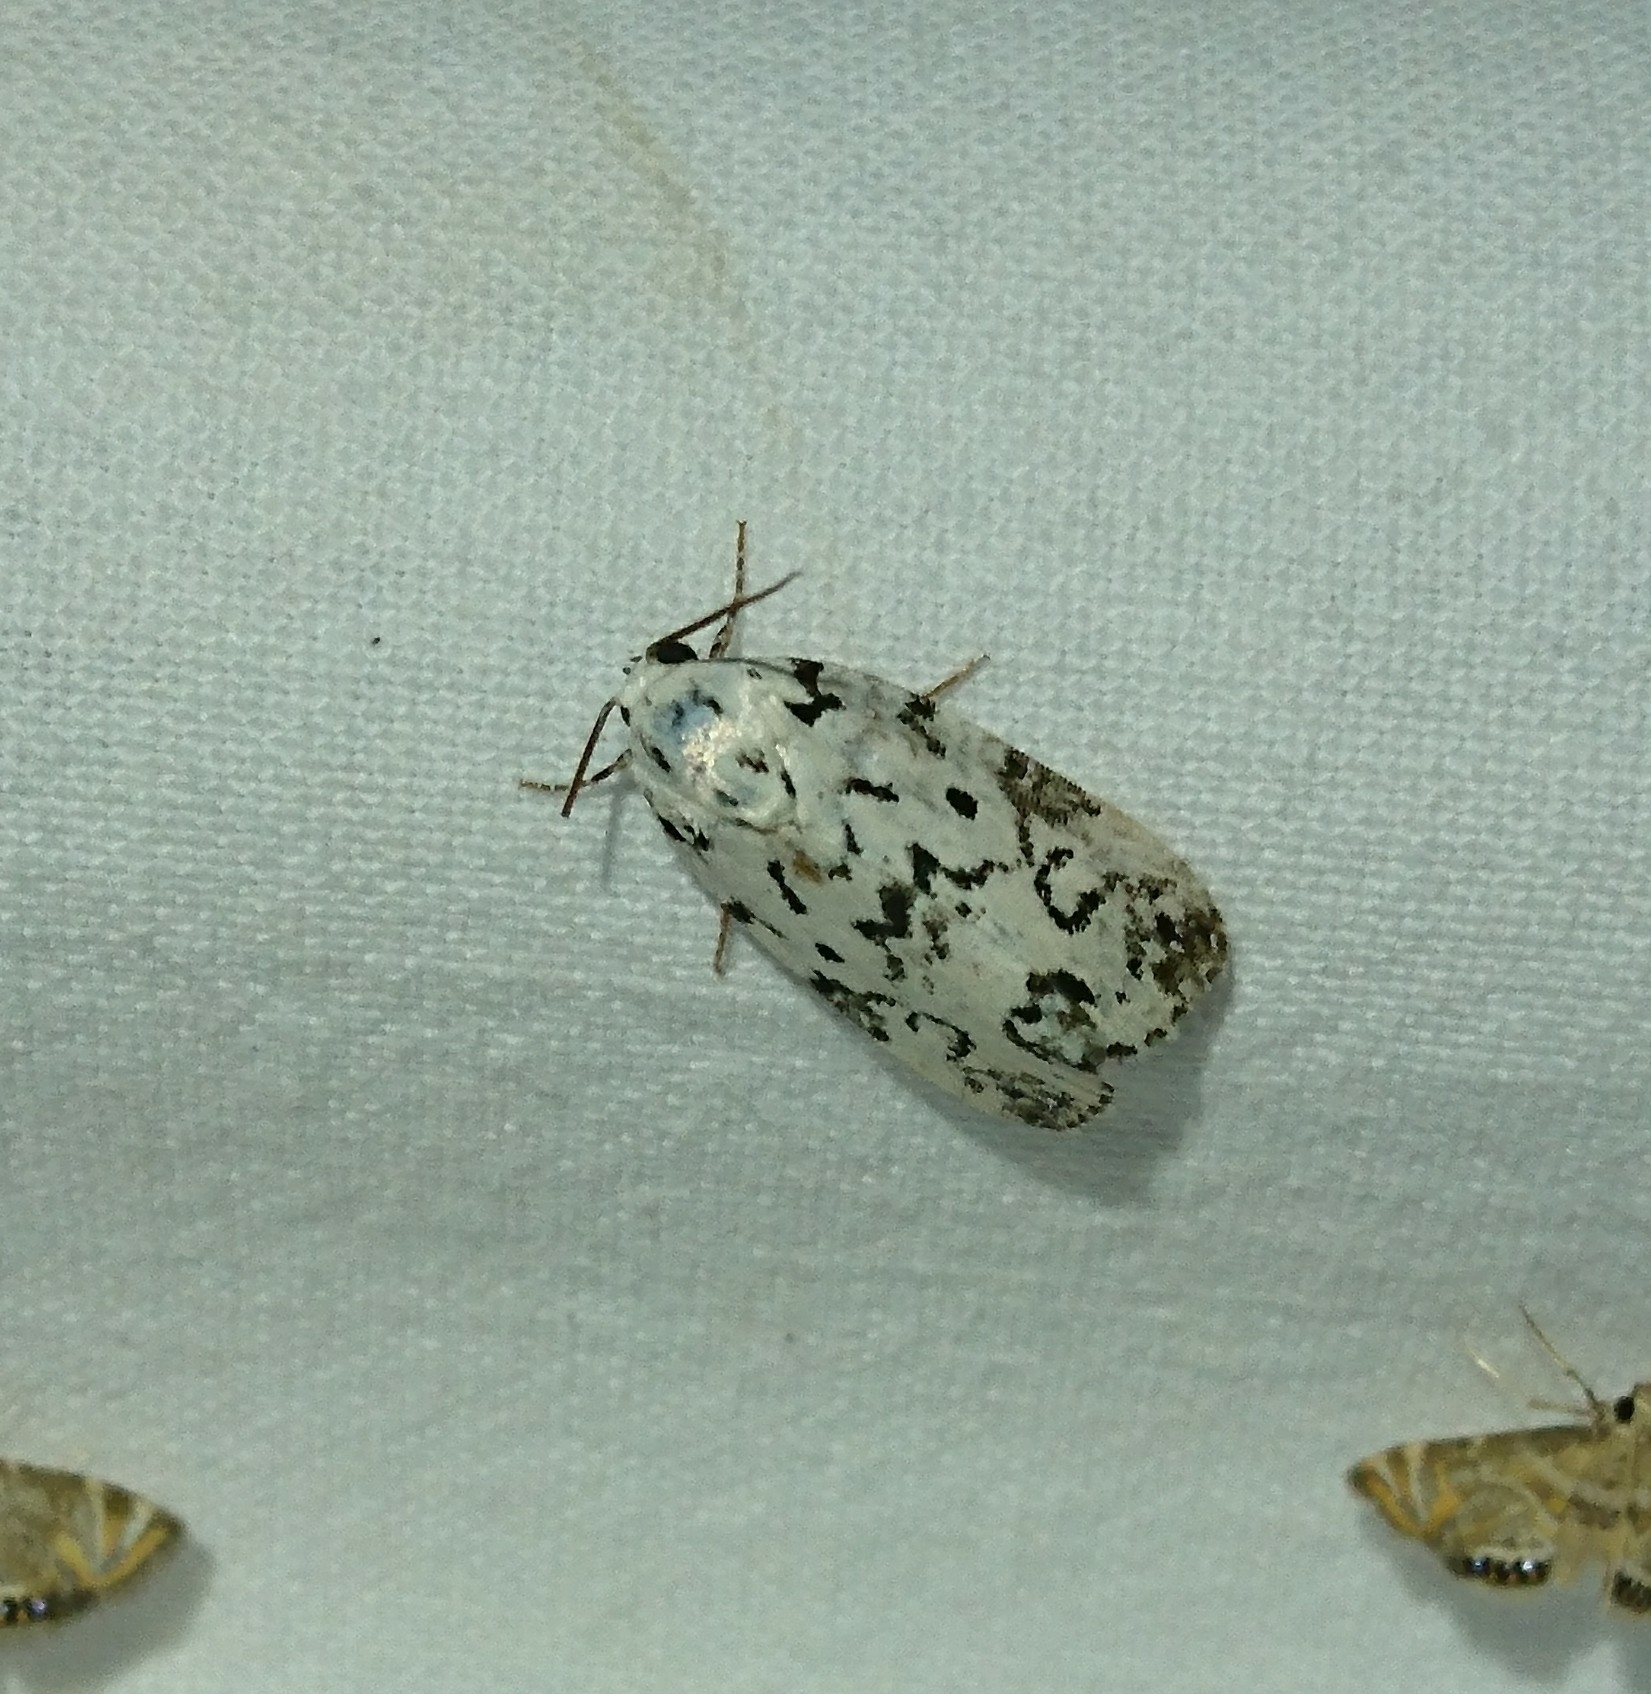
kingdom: Animalia
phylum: Arthropoda
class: Insecta
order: Lepidoptera
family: Noctuidae
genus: Polygrammate
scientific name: Polygrammate hebraeicum
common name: Hebrew moth
